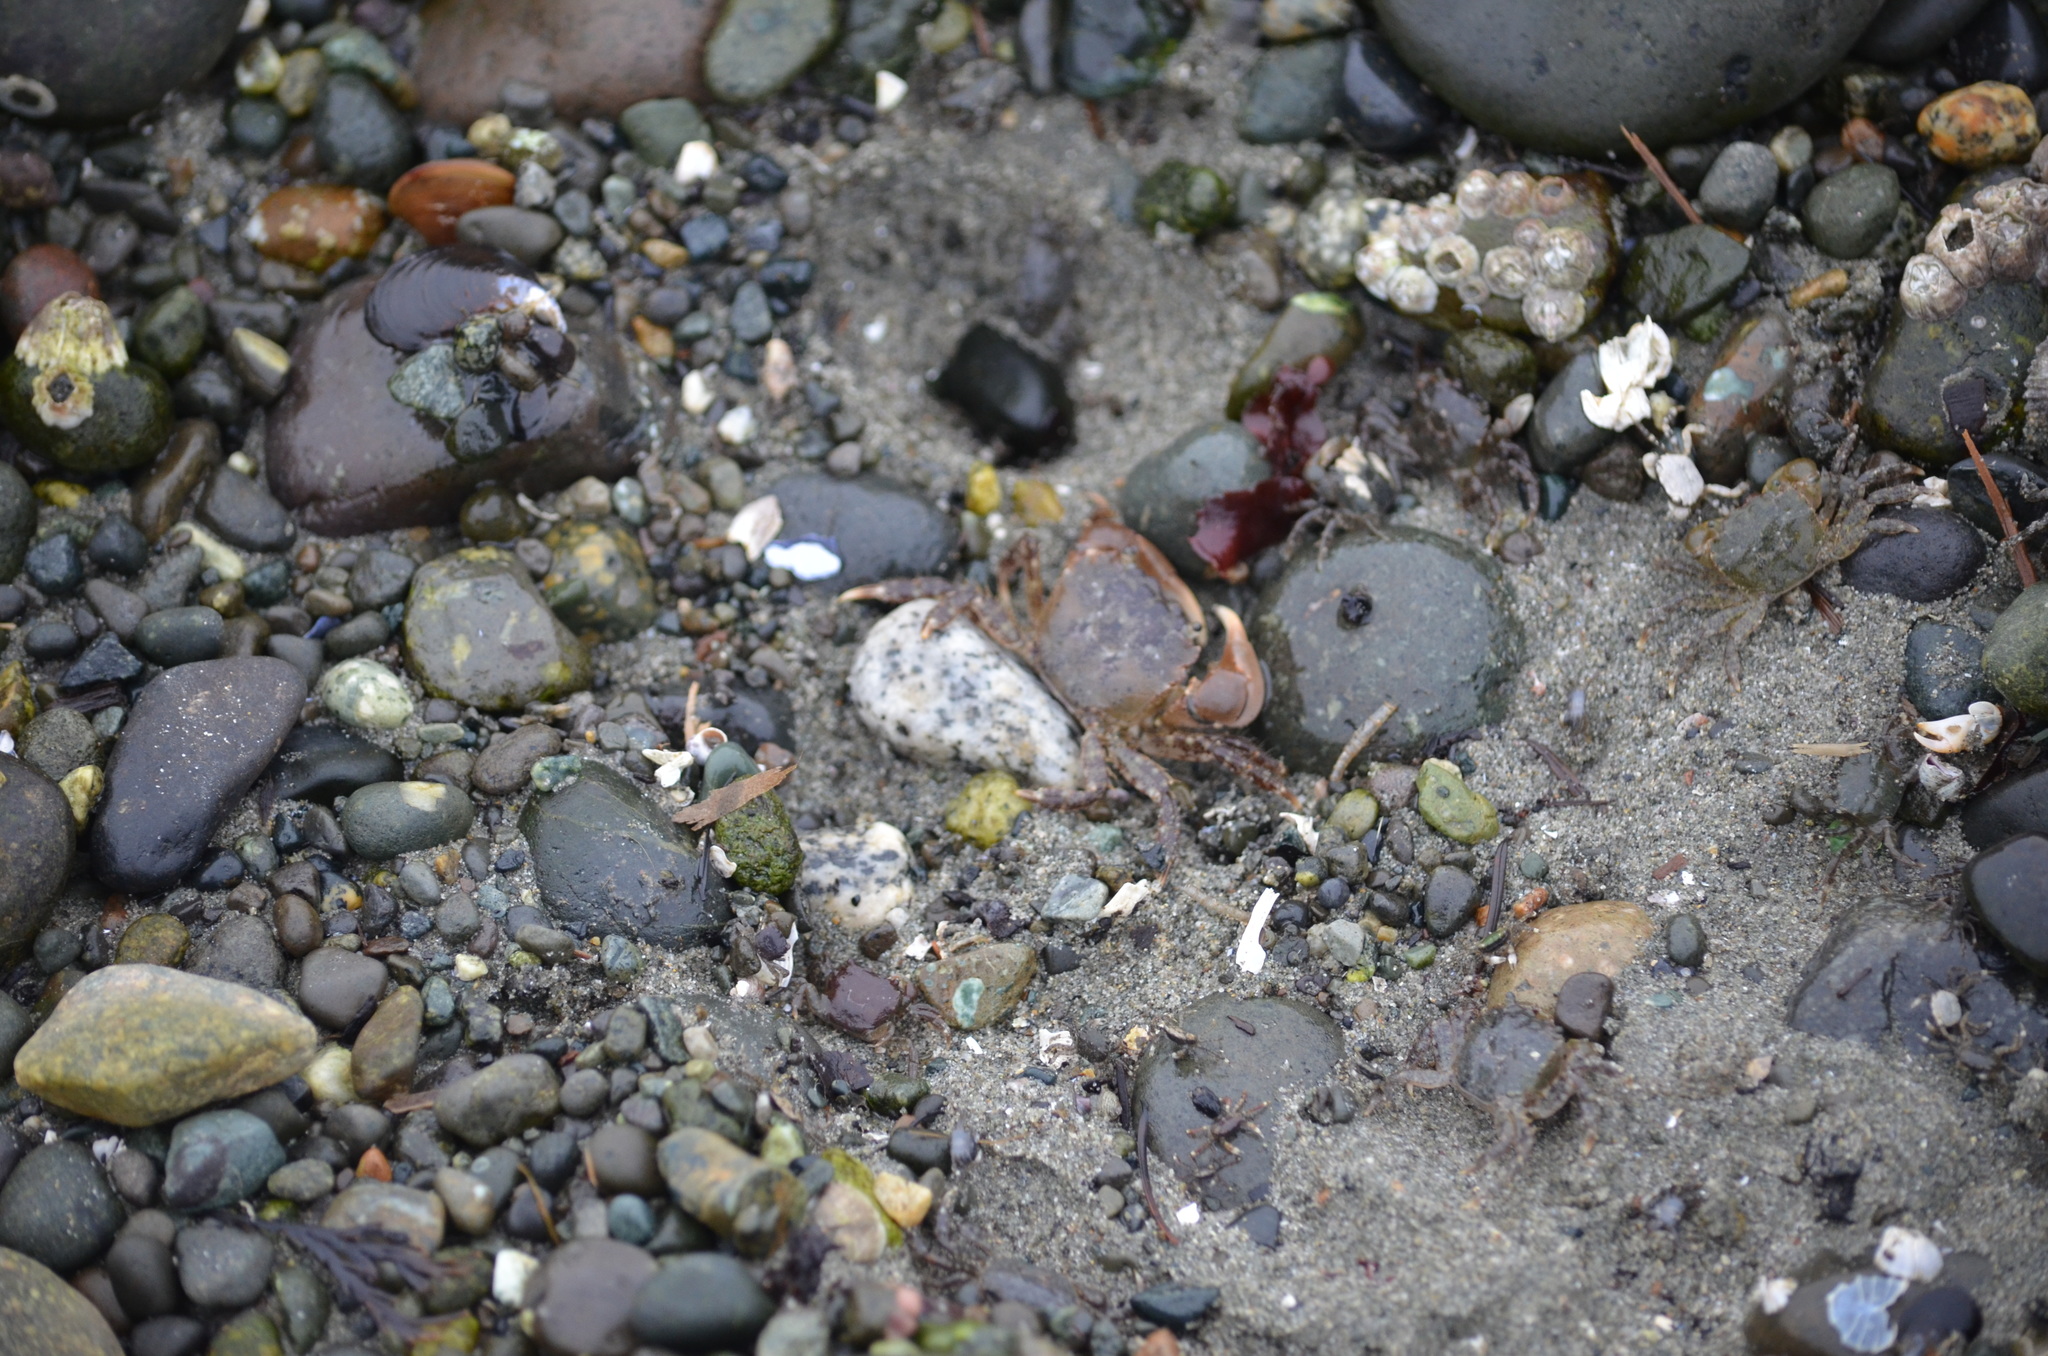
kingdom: Animalia
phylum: Arthropoda
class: Malacostraca
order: Decapoda
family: Varunidae
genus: Hemigrapsus
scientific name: Hemigrapsus oregonensis
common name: Yellow shore crab
